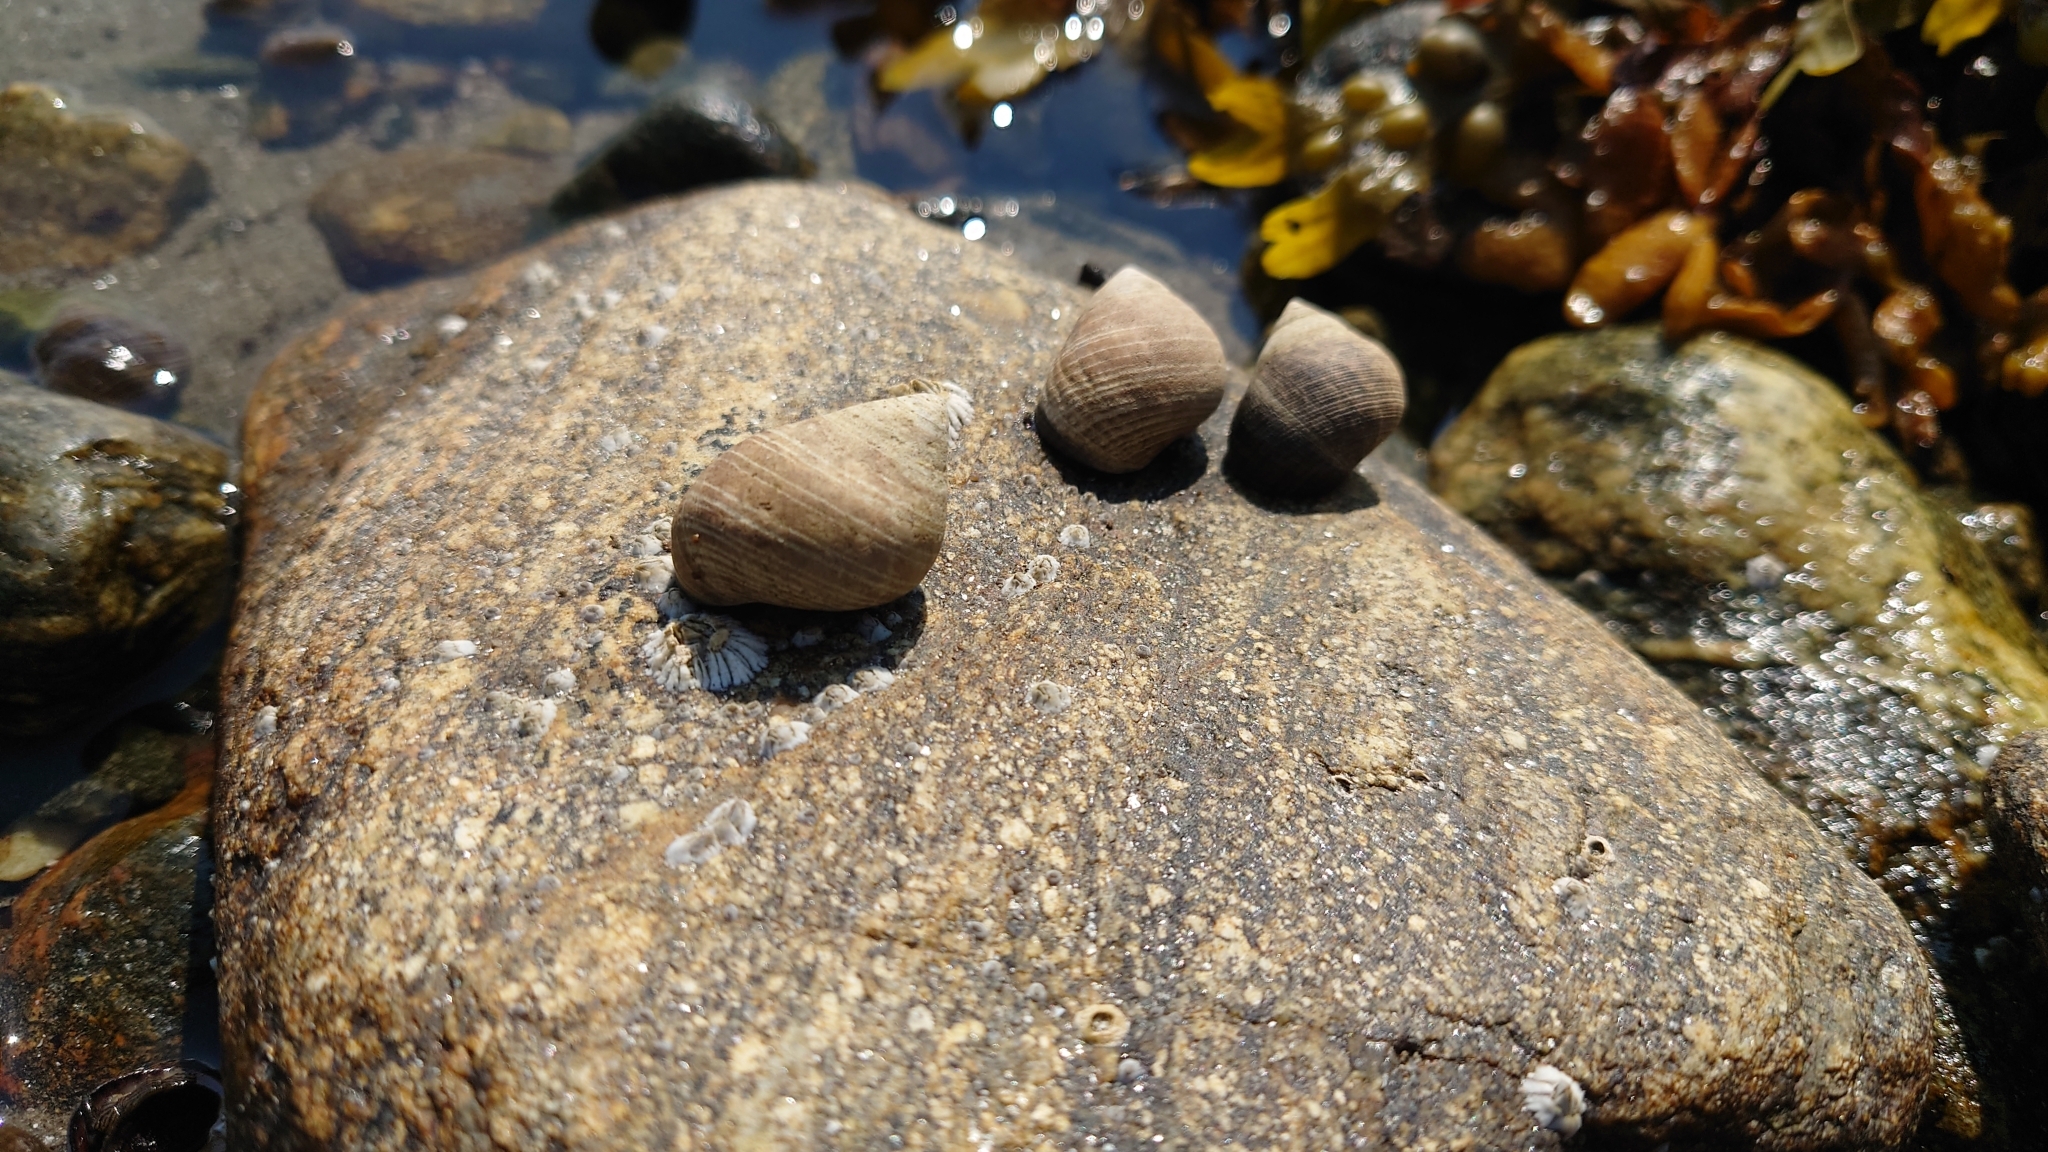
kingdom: Animalia
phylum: Mollusca
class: Gastropoda
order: Littorinimorpha
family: Littorinidae
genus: Littorina
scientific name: Littorina littorea
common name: Common periwinkle
